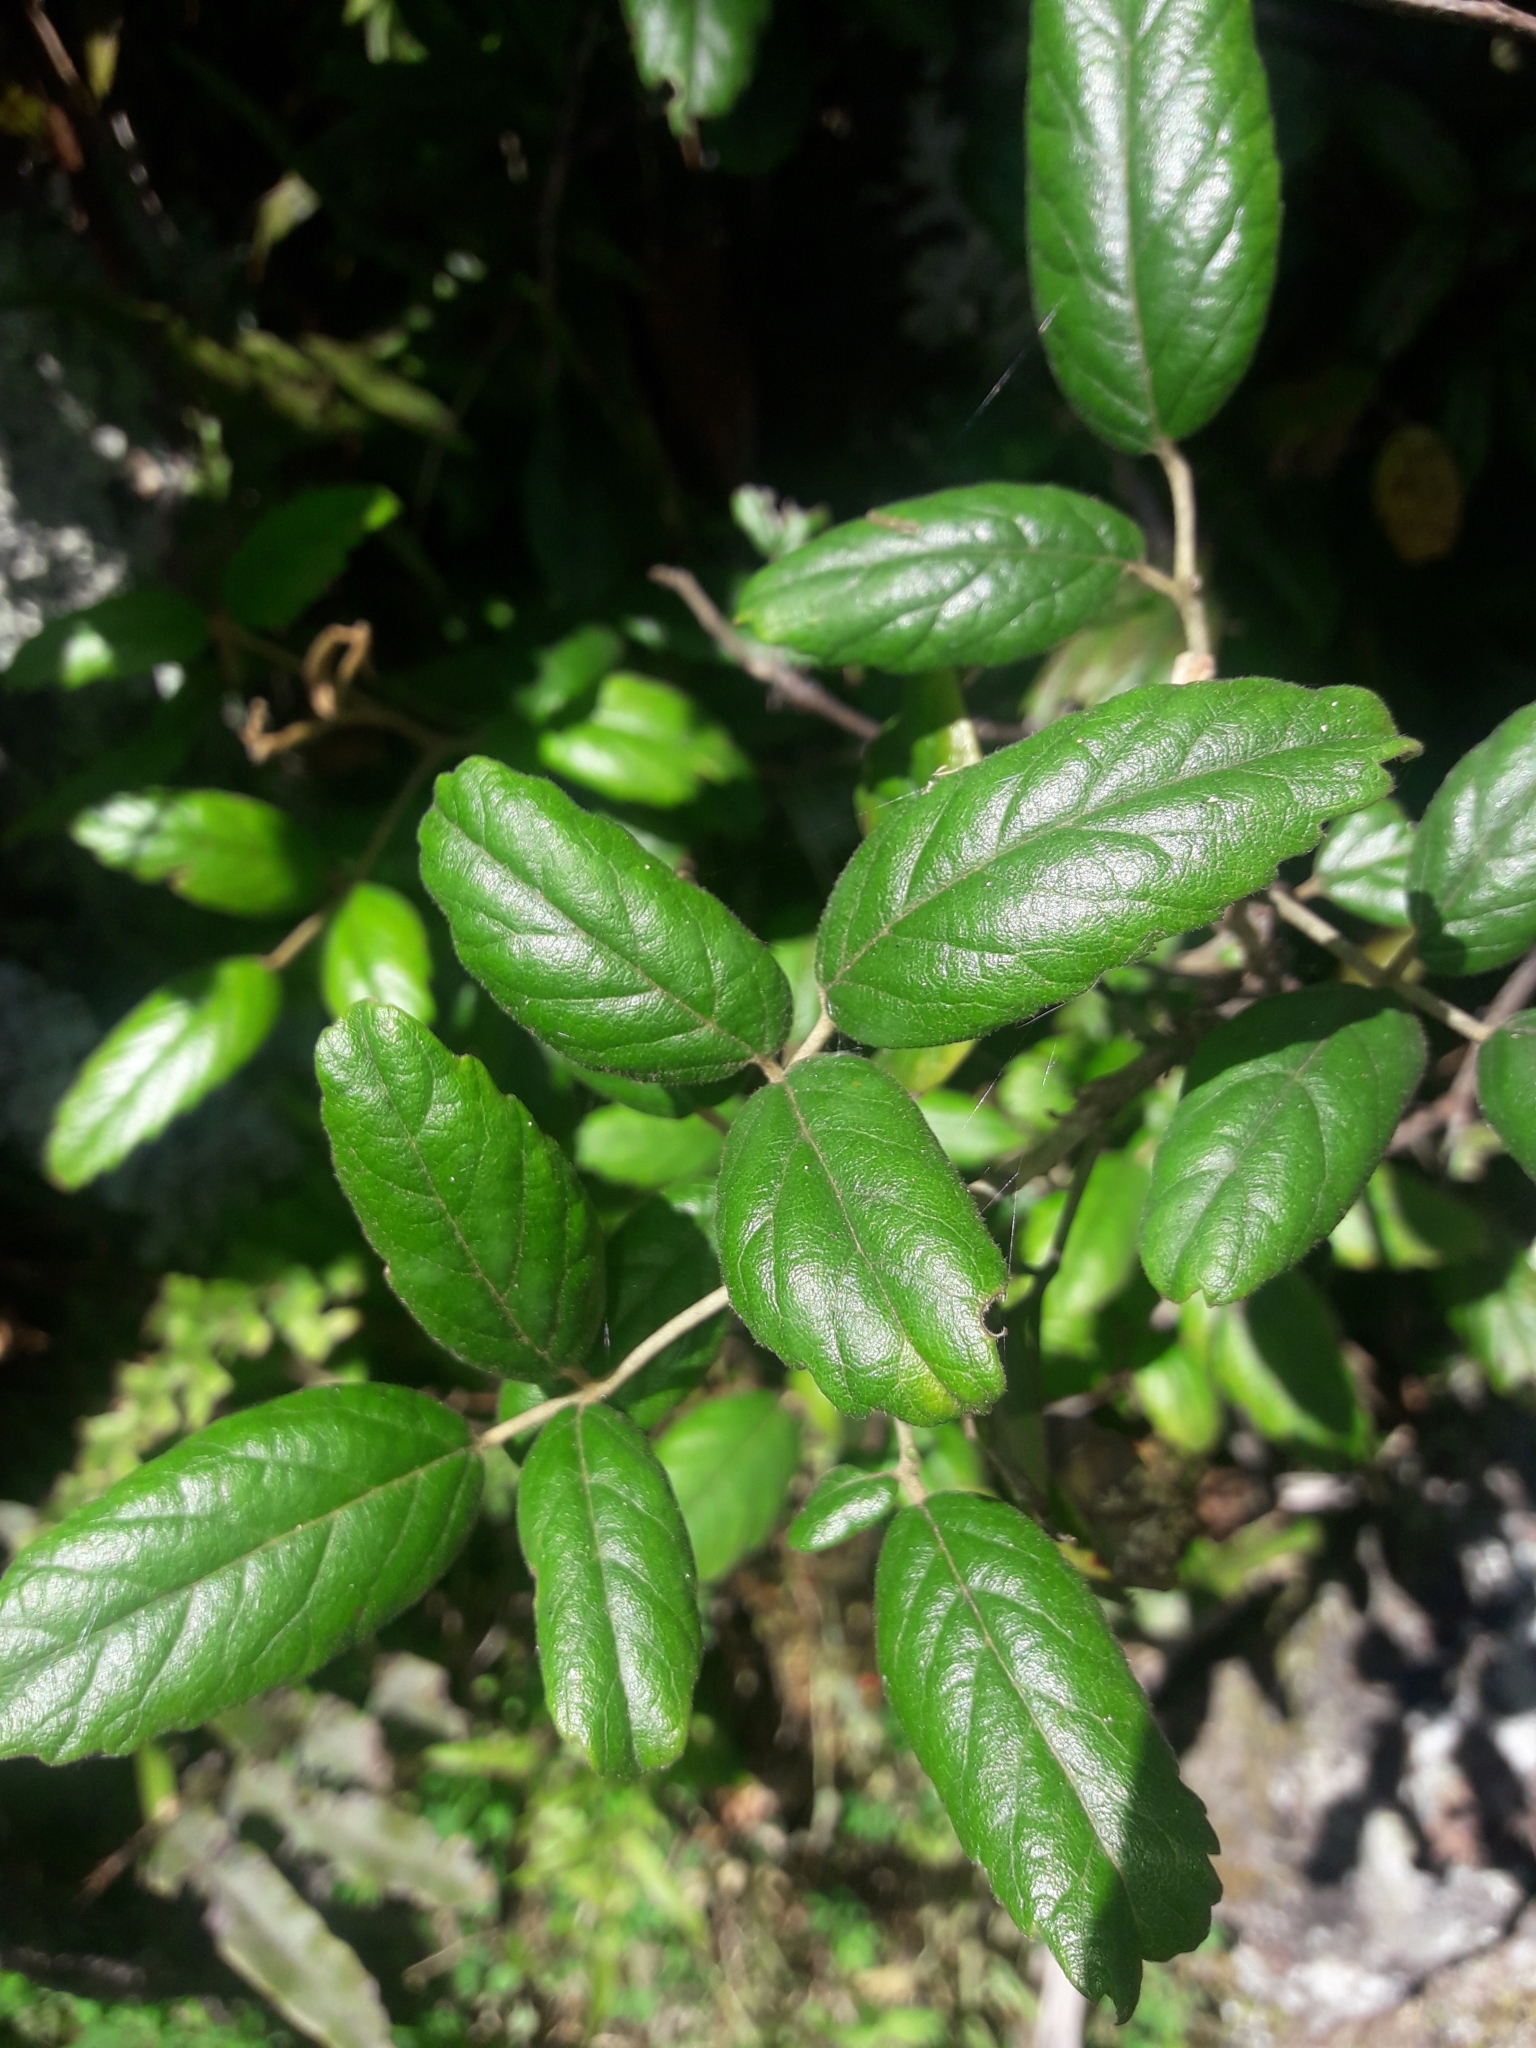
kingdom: Plantae
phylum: Tracheophyta
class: Magnoliopsida
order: Rosales
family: Rosaceae
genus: Rubus
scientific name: Rubus schmidelioides
